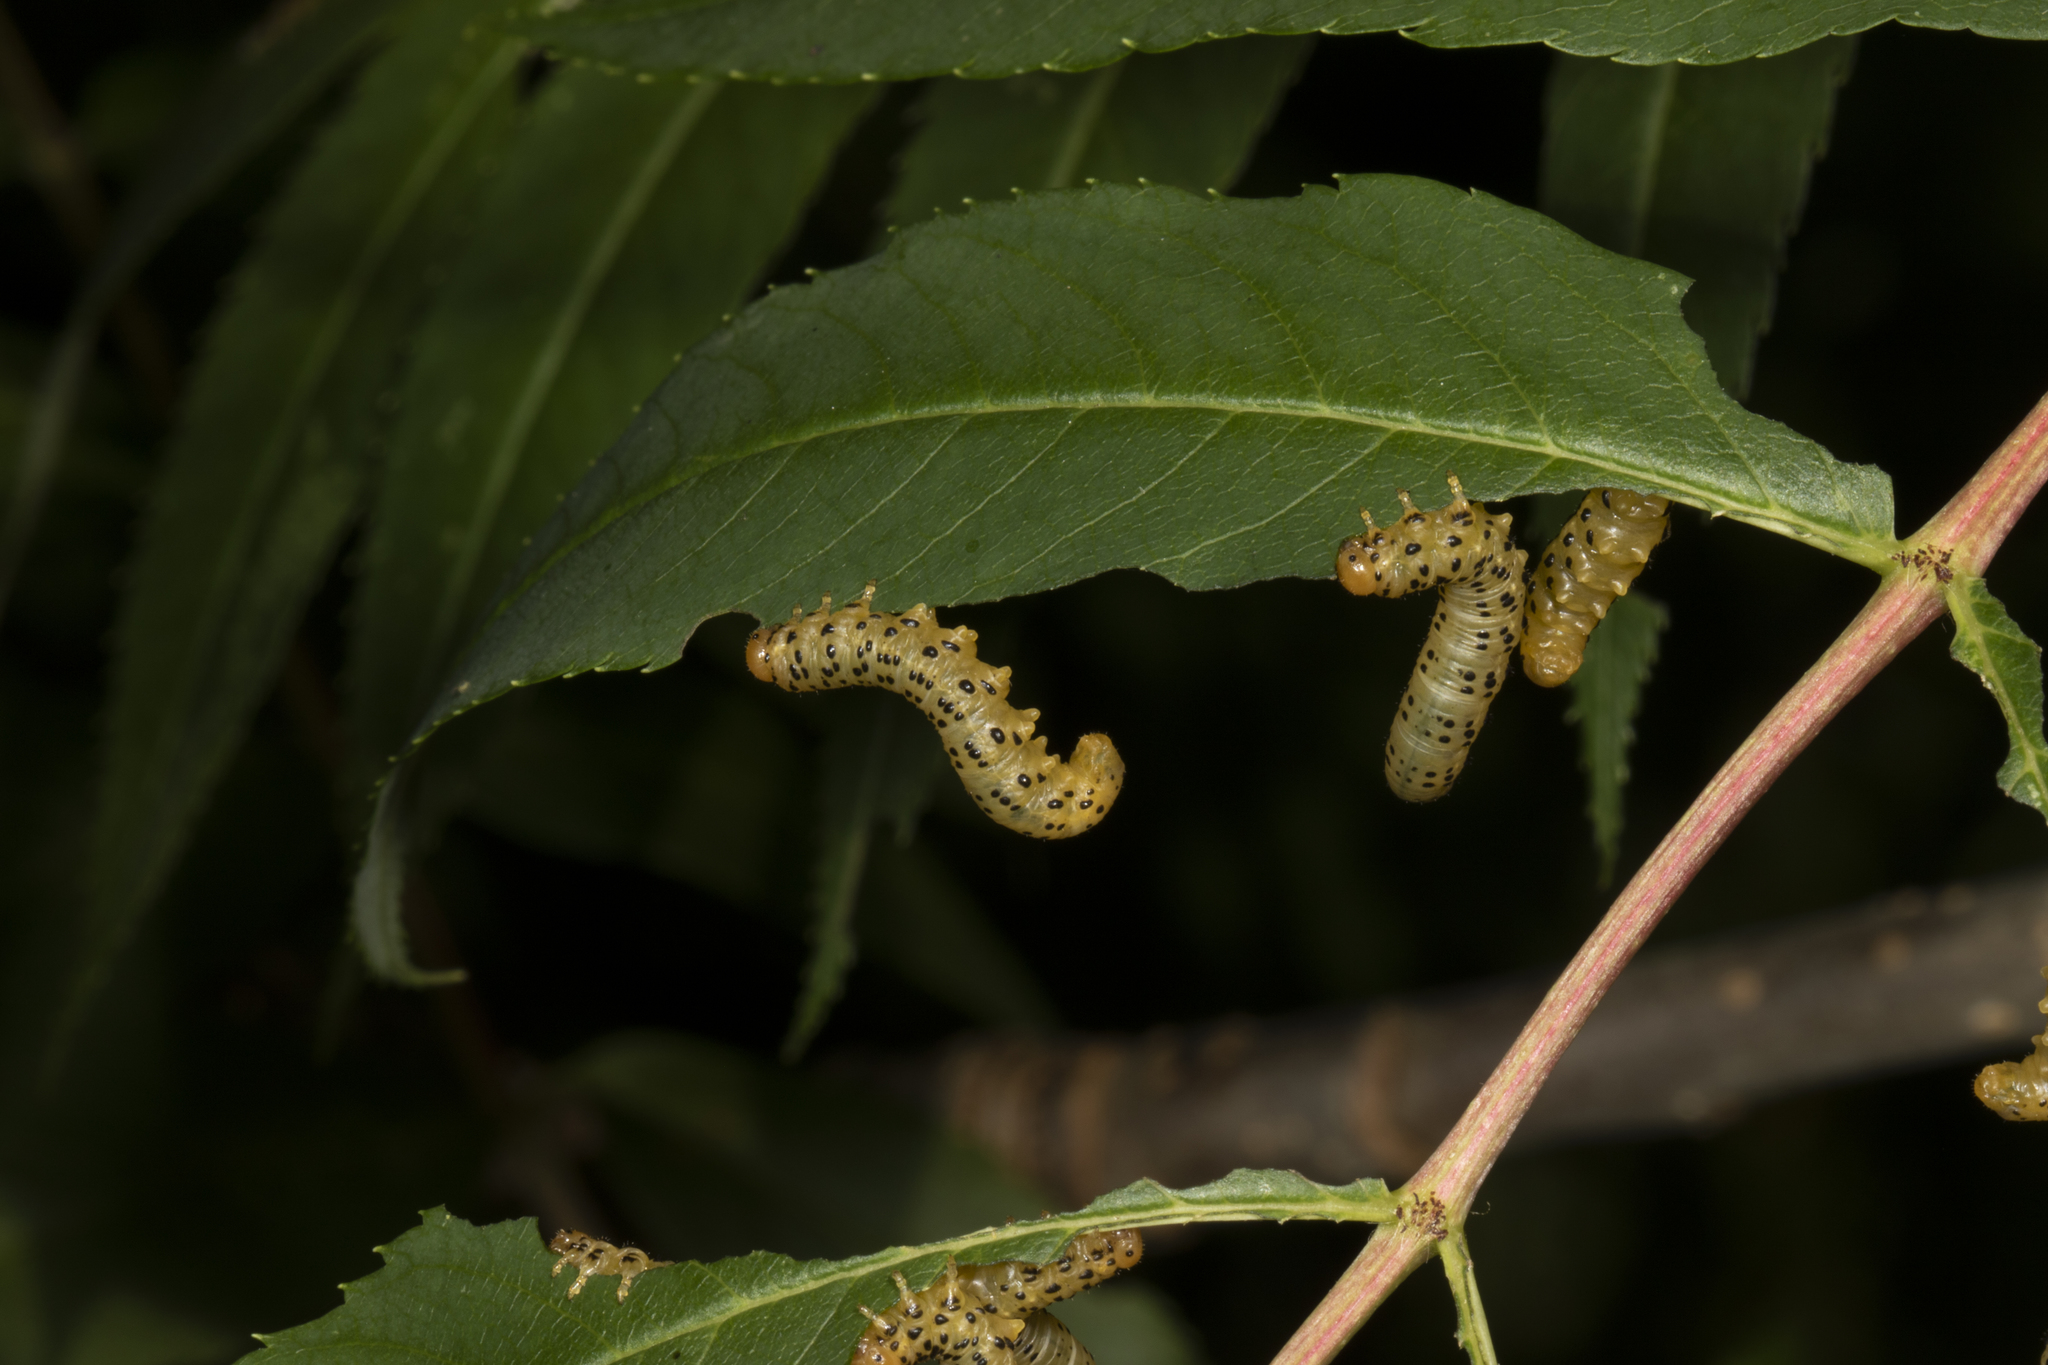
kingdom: Animalia
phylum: Arthropoda
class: Insecta
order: Hymenoptera
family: Tenthredinidae
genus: Pristiphora
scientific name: Pristiphora geniculata
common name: Mountain-ash sawfly
